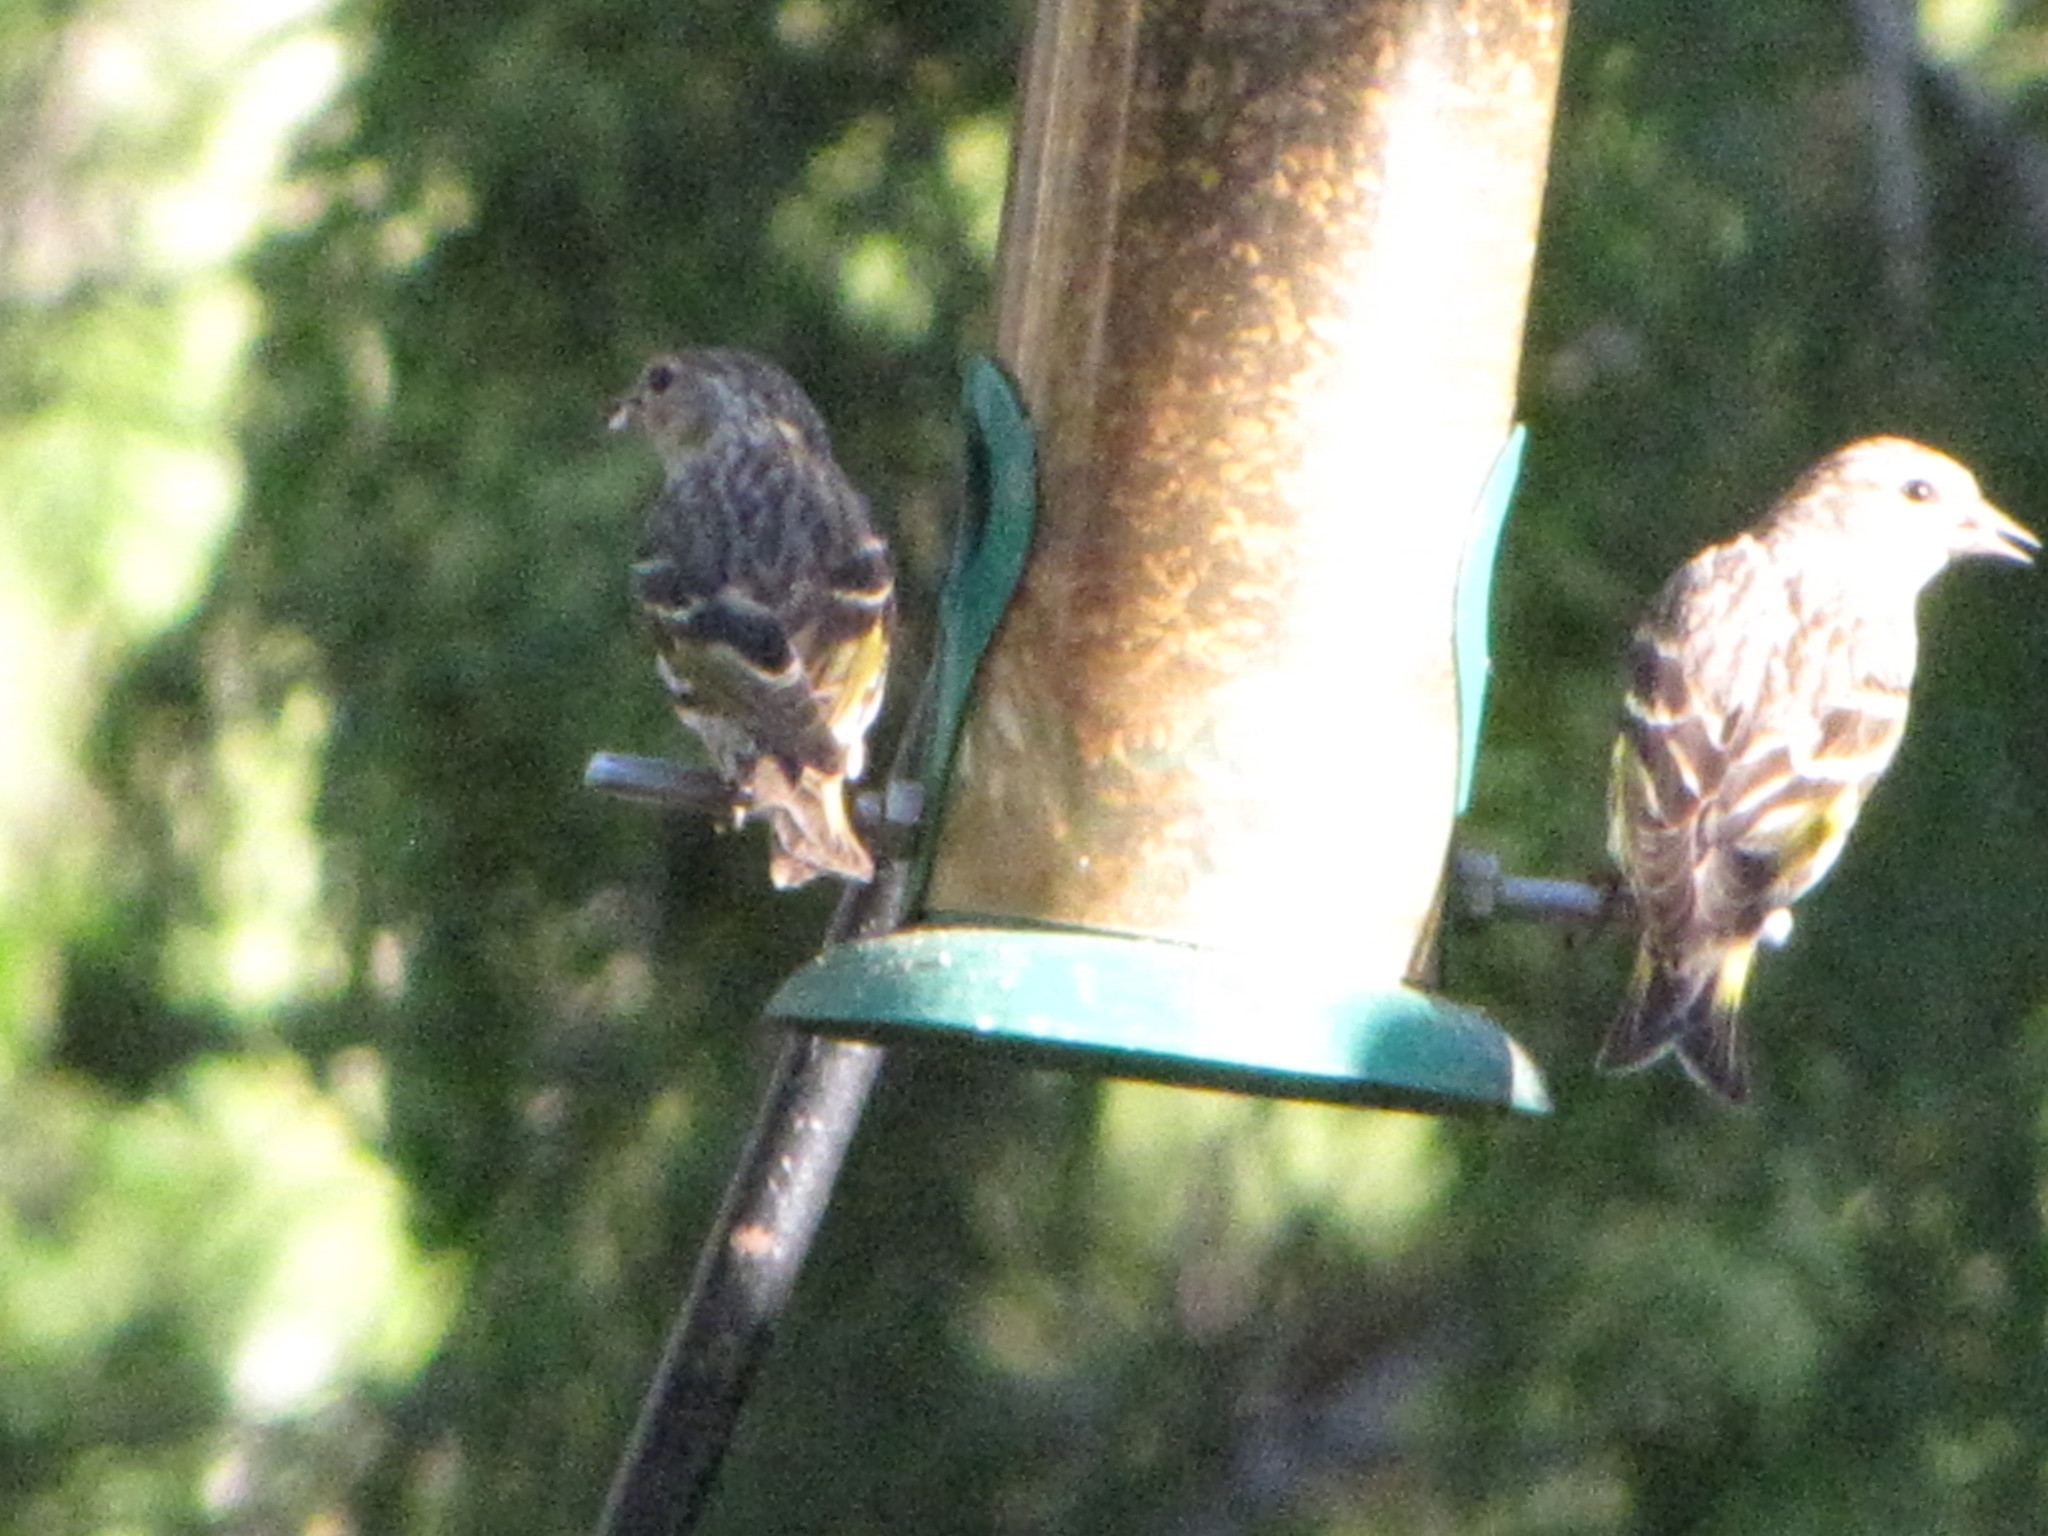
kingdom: Animalia
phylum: Chordata
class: Aves
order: Passeriformes
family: Fringillidae
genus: Spinus
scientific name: Spinus pinus
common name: Pine siskin
